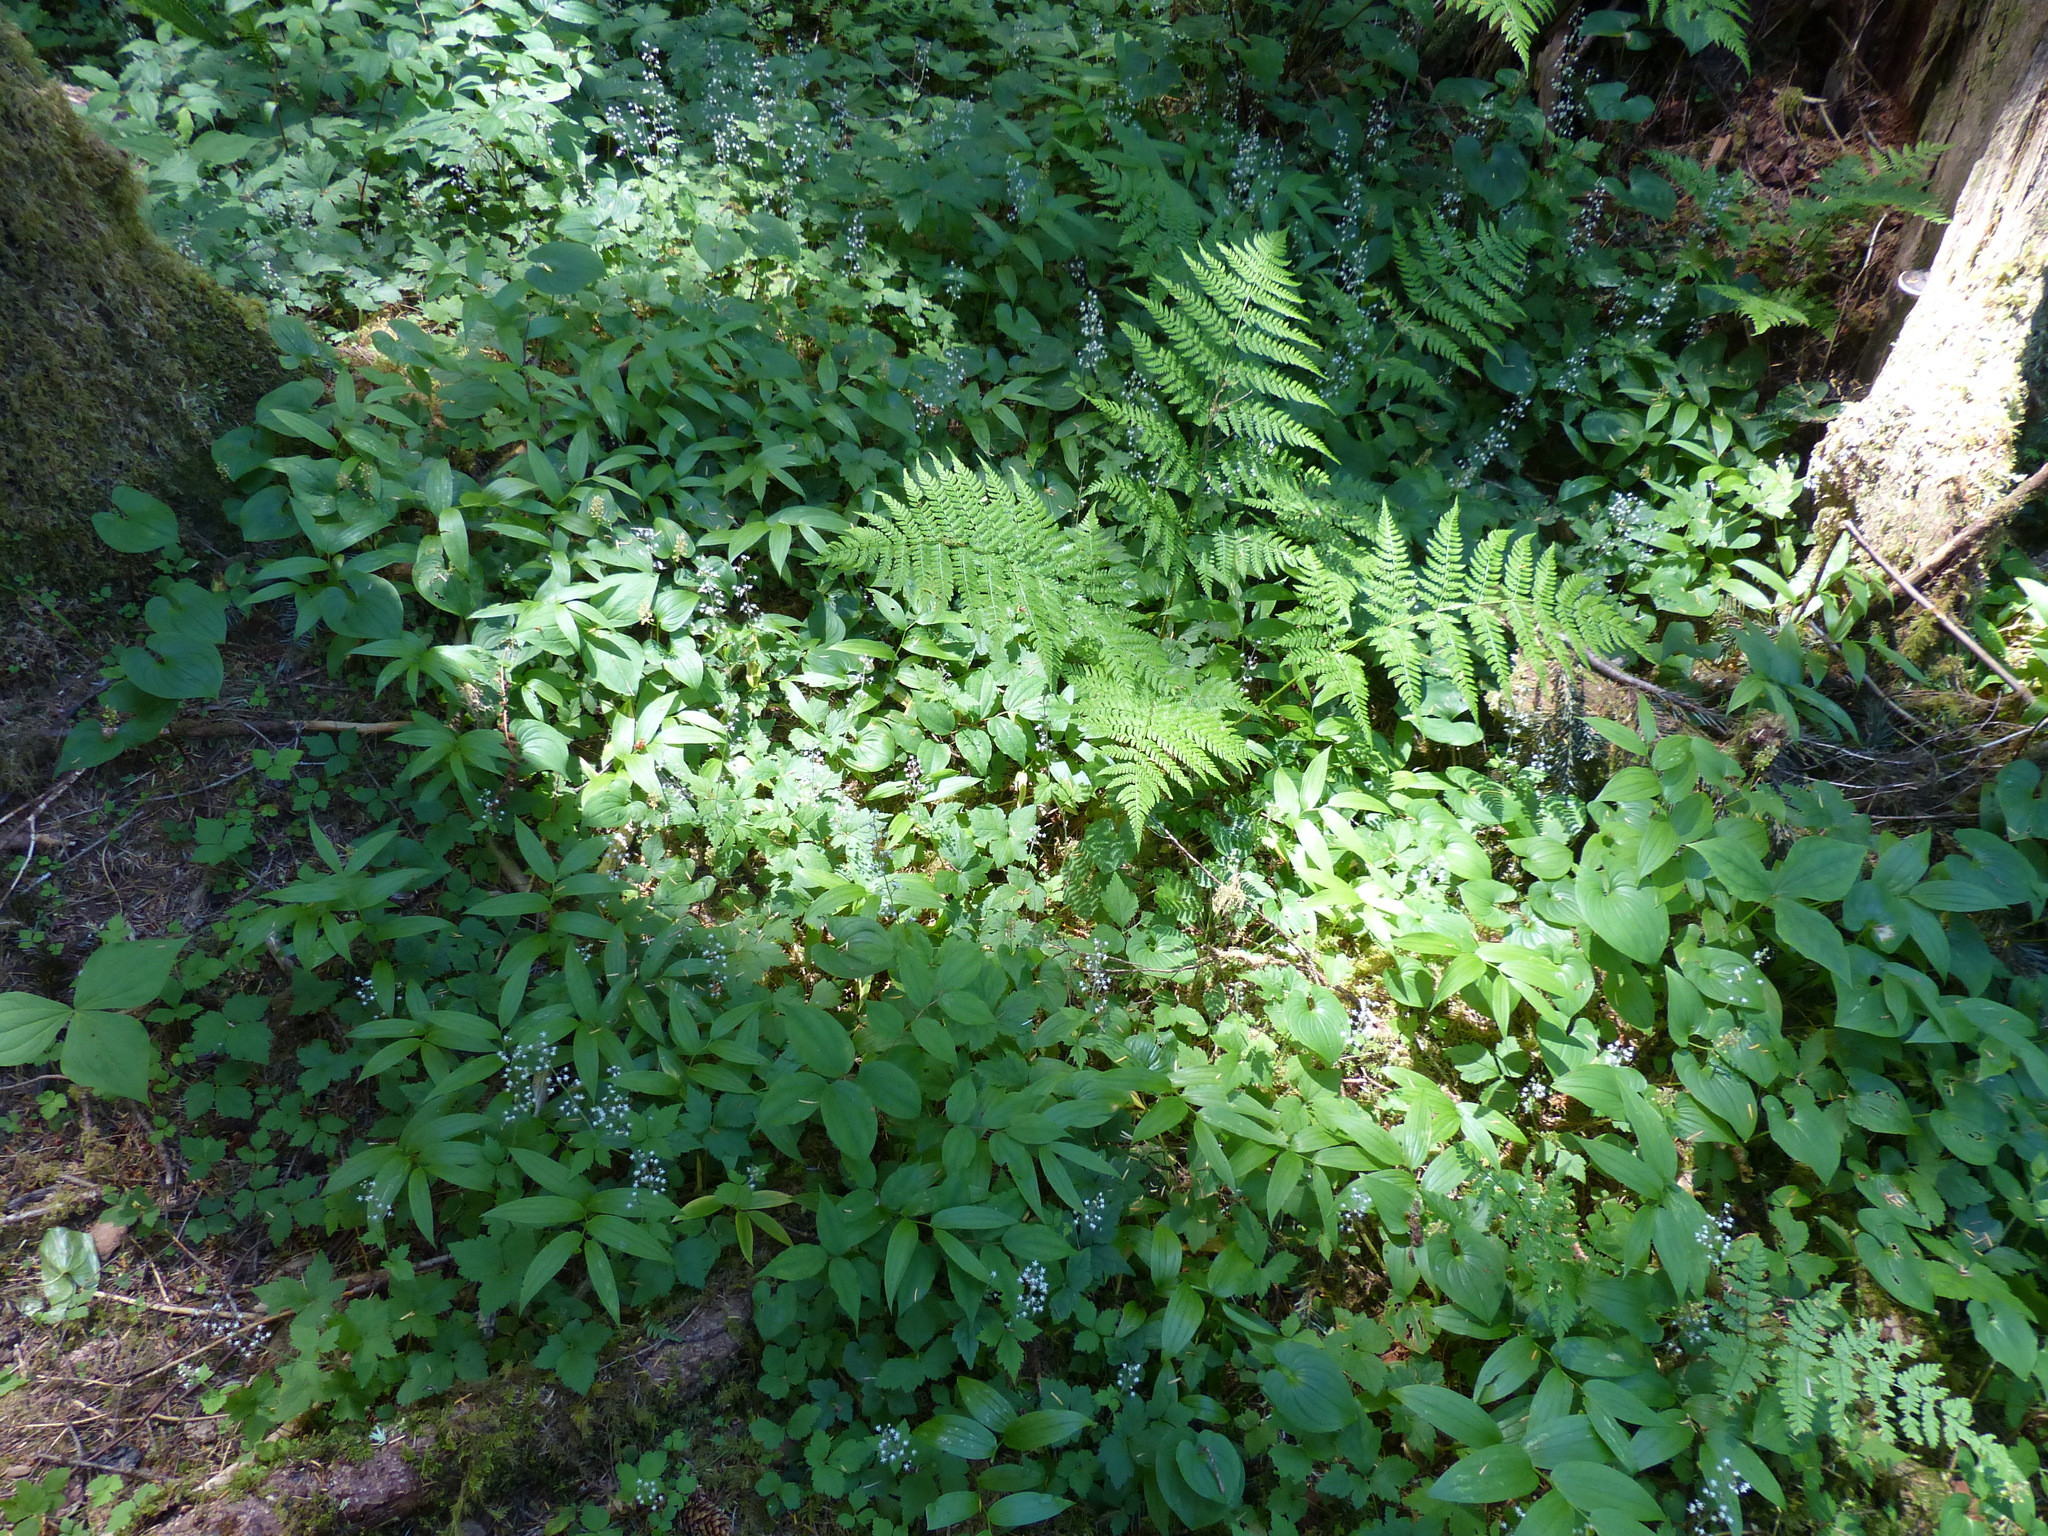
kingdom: Plantae
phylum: Tracheophyta
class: Magnoliopsida
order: Saxifragales
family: Saxifragaceae
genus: Tiarella
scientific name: Tiarella trifoliata
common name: Sugar-scoop
